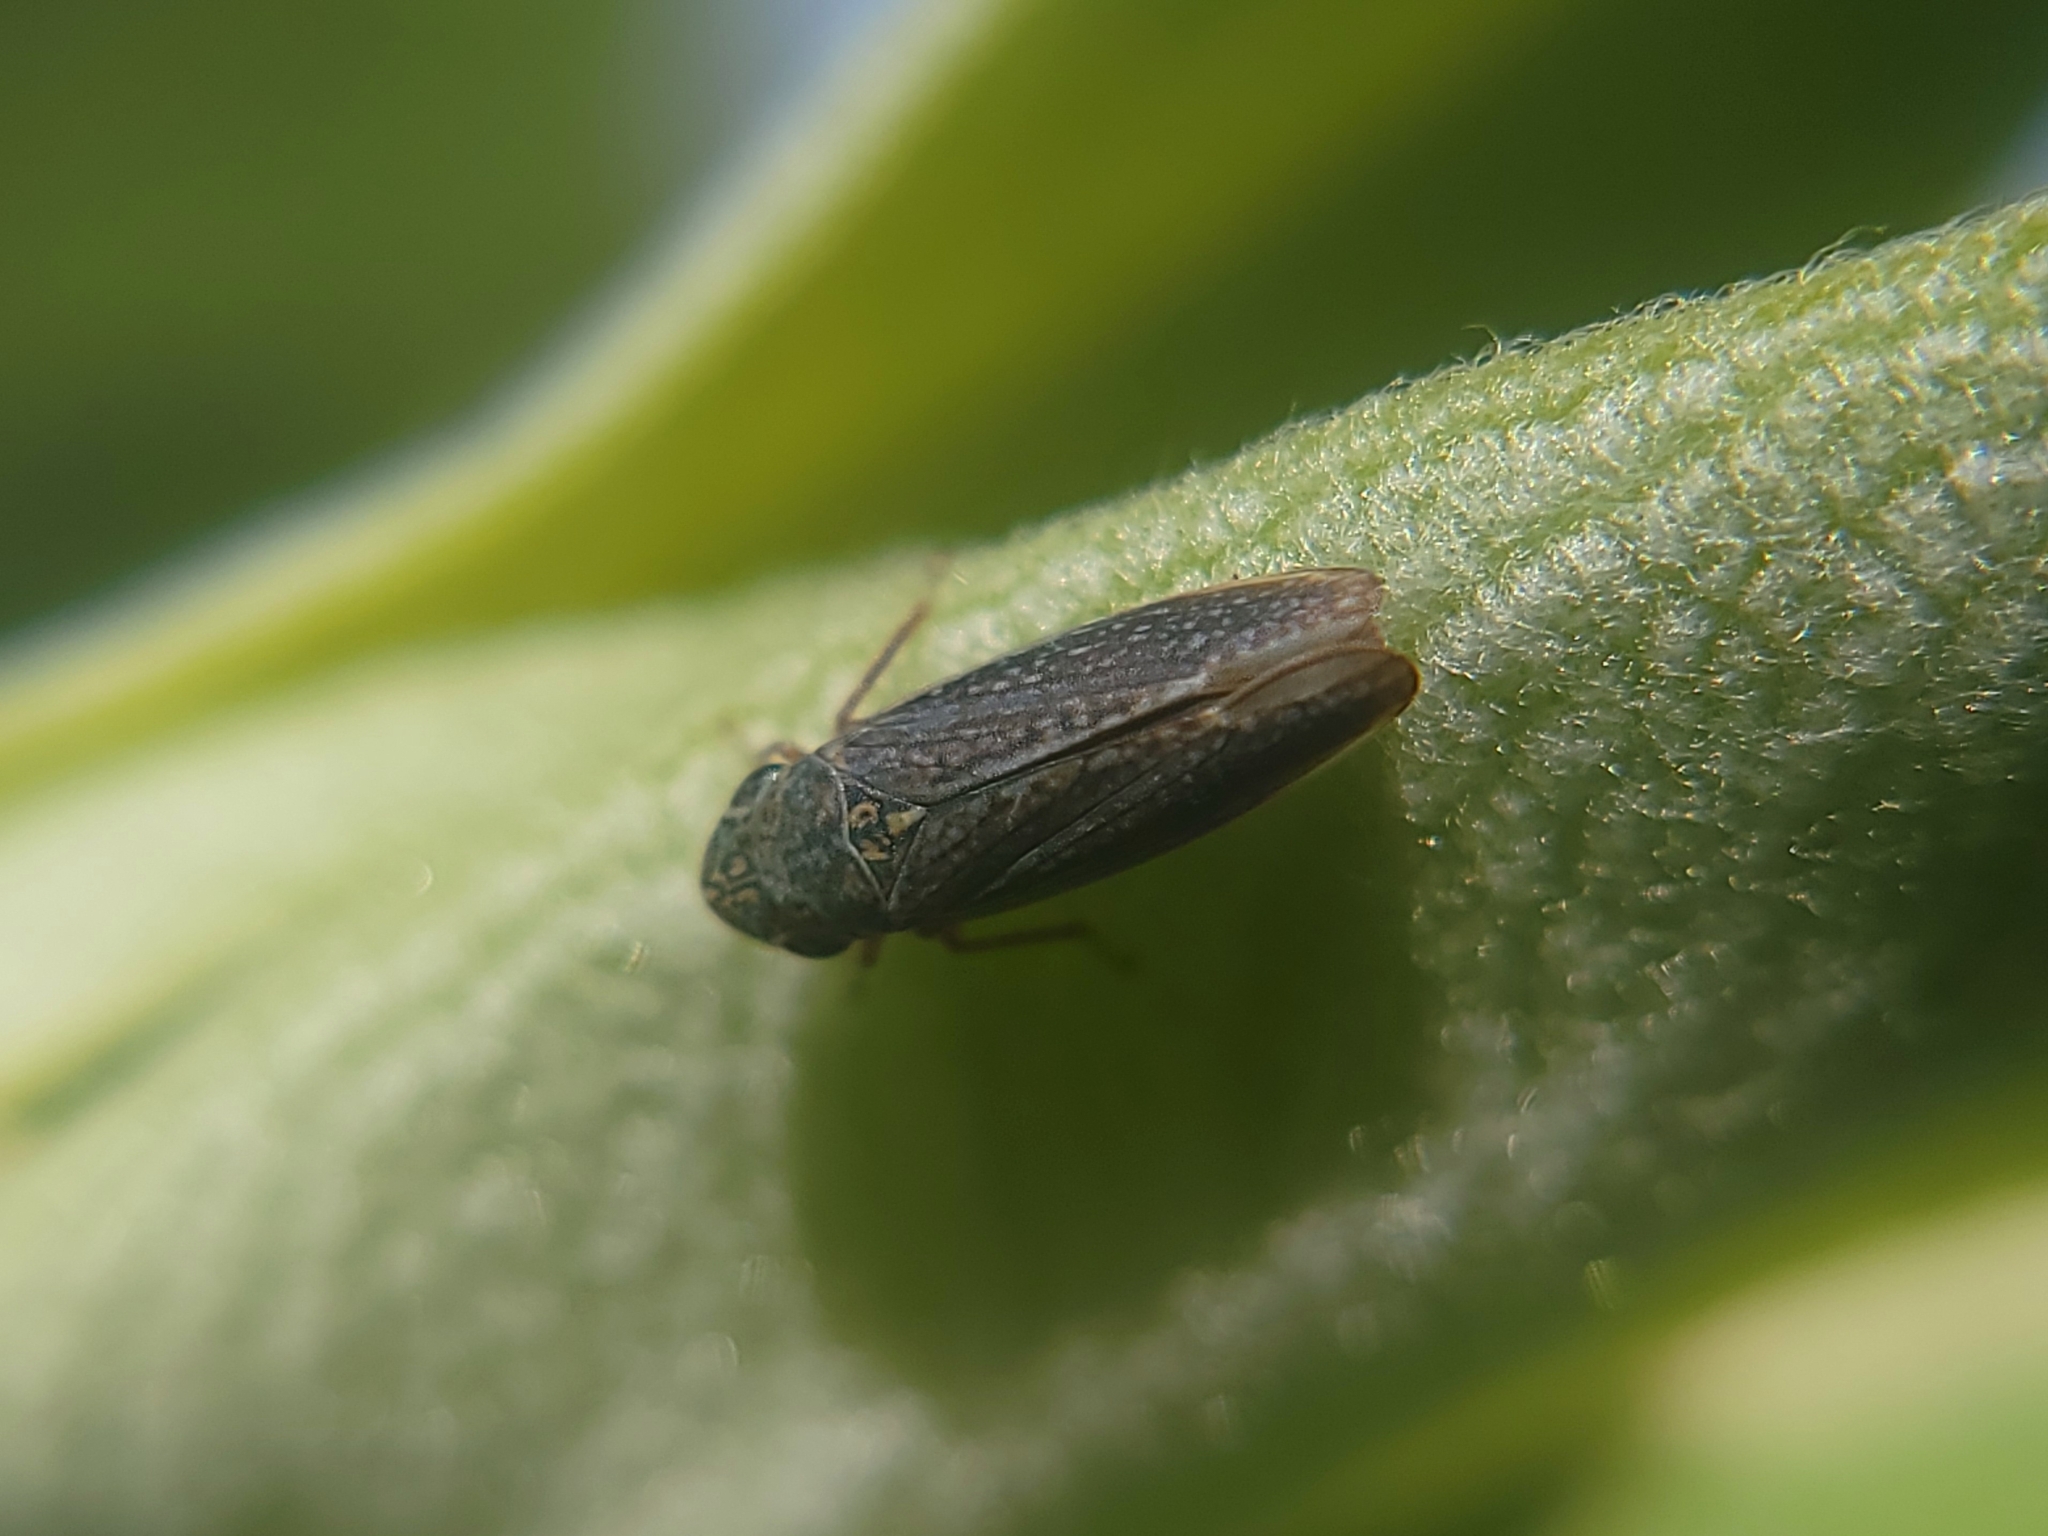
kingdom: Animalia
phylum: Arthropoda
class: Insecta
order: Hemiptera
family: Cicadellidae
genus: Graphocephala
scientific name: Graphocephala confluens
